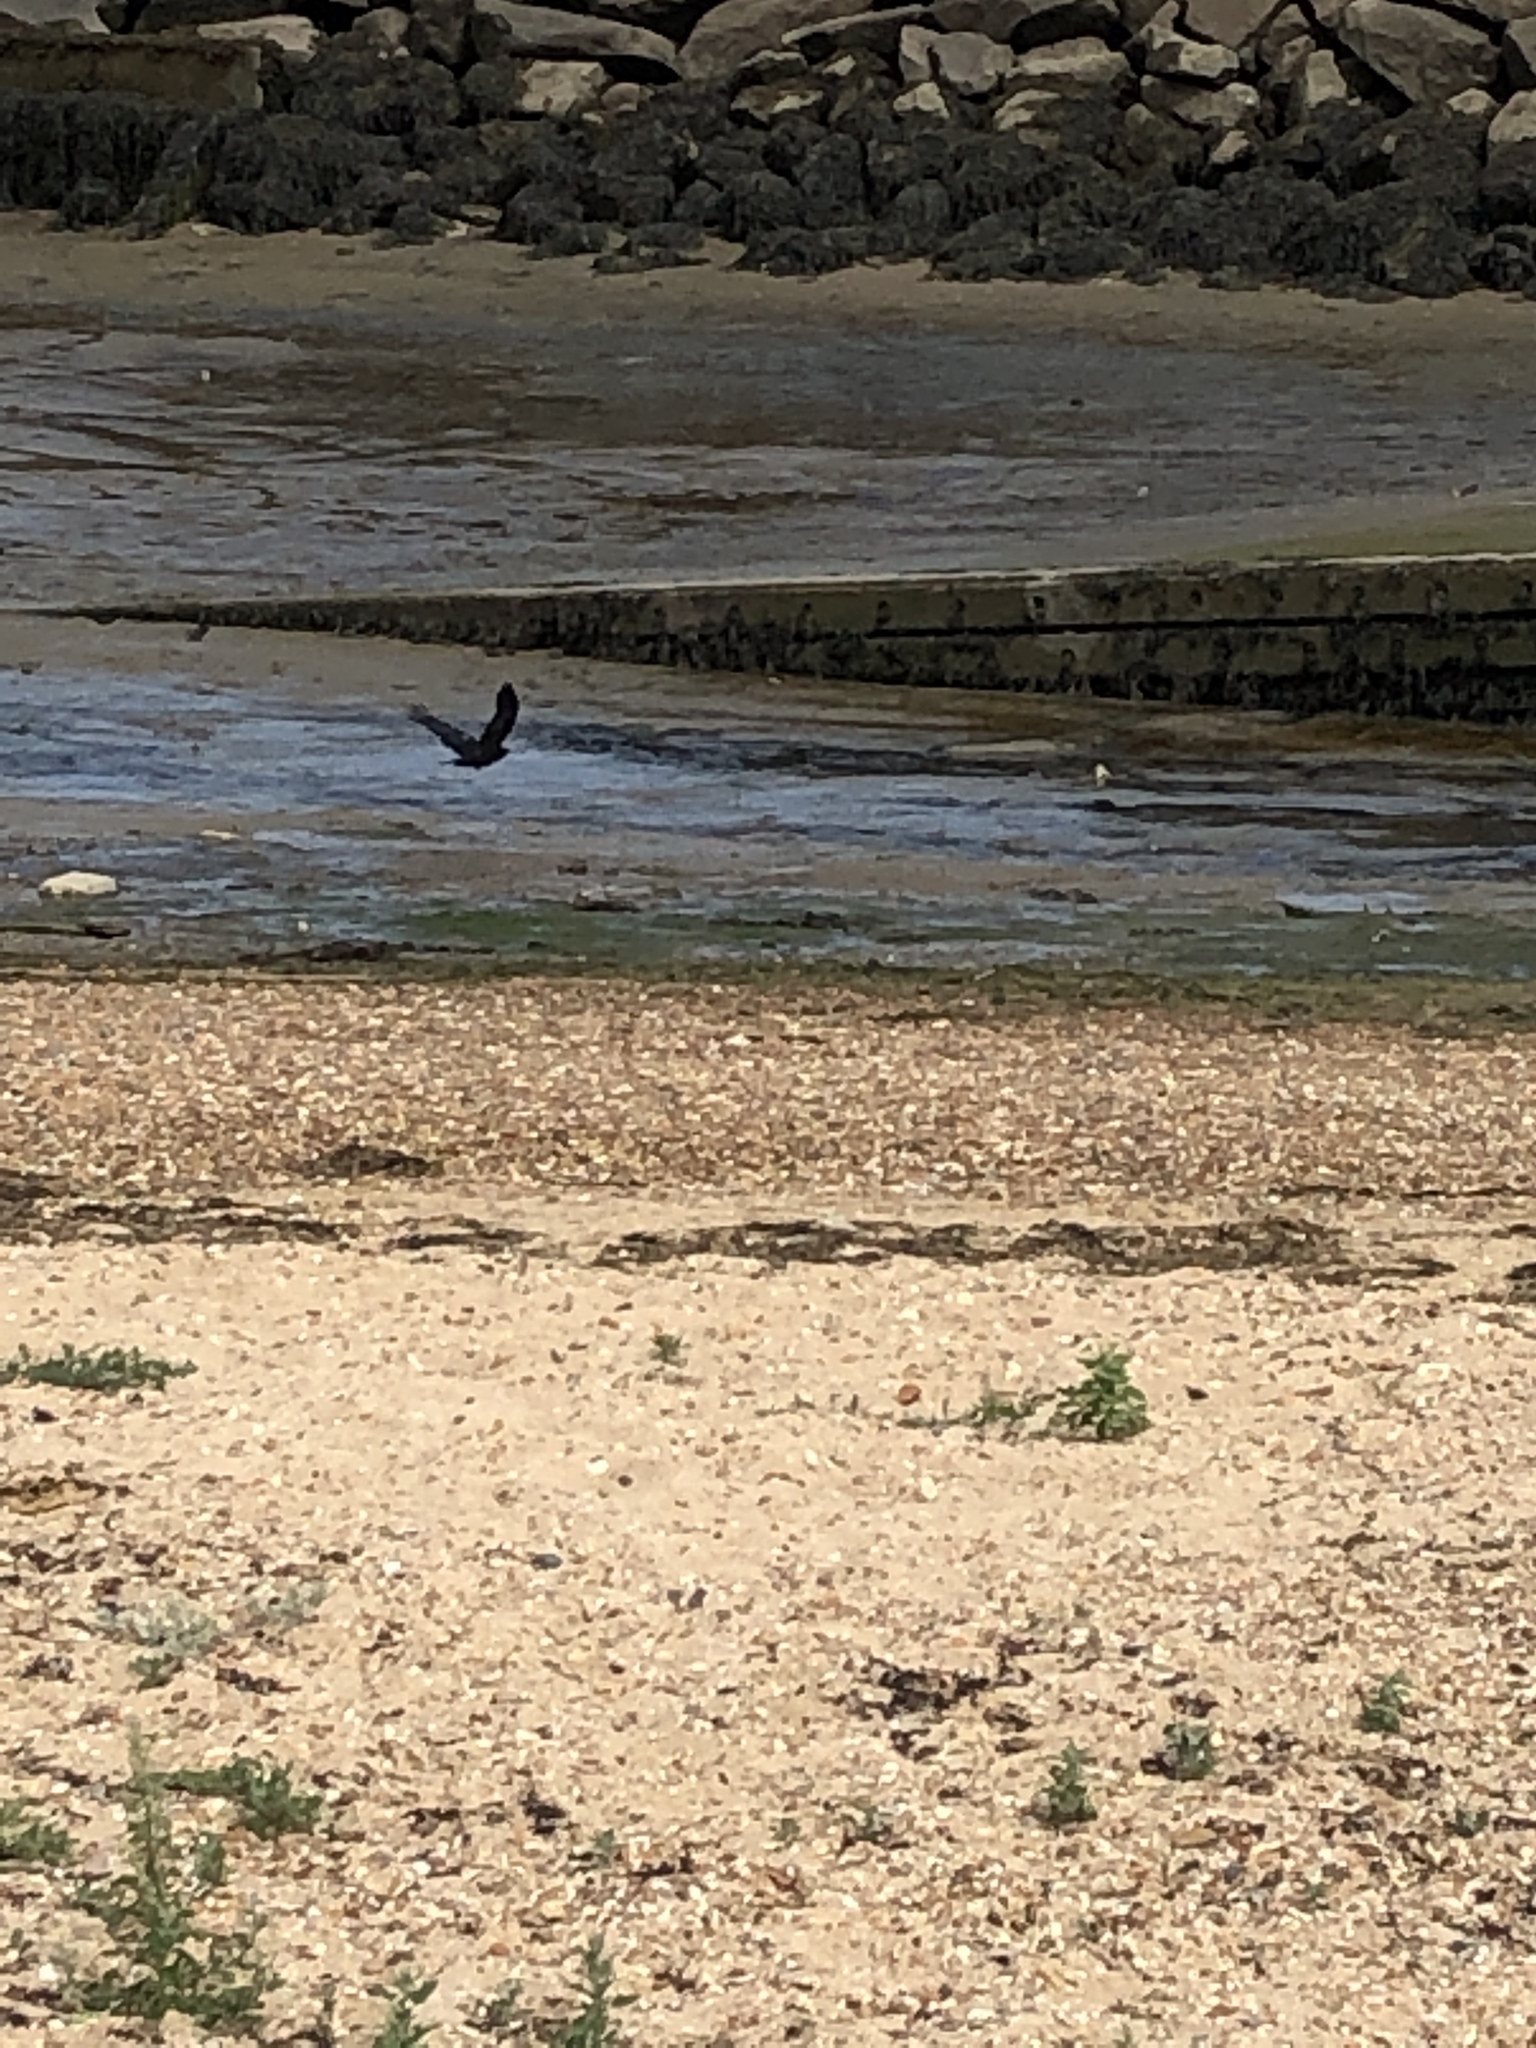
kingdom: Animalia
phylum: Chordata
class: Aves
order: Passeriformes
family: Corvidae
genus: Corvus
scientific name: Corvus
